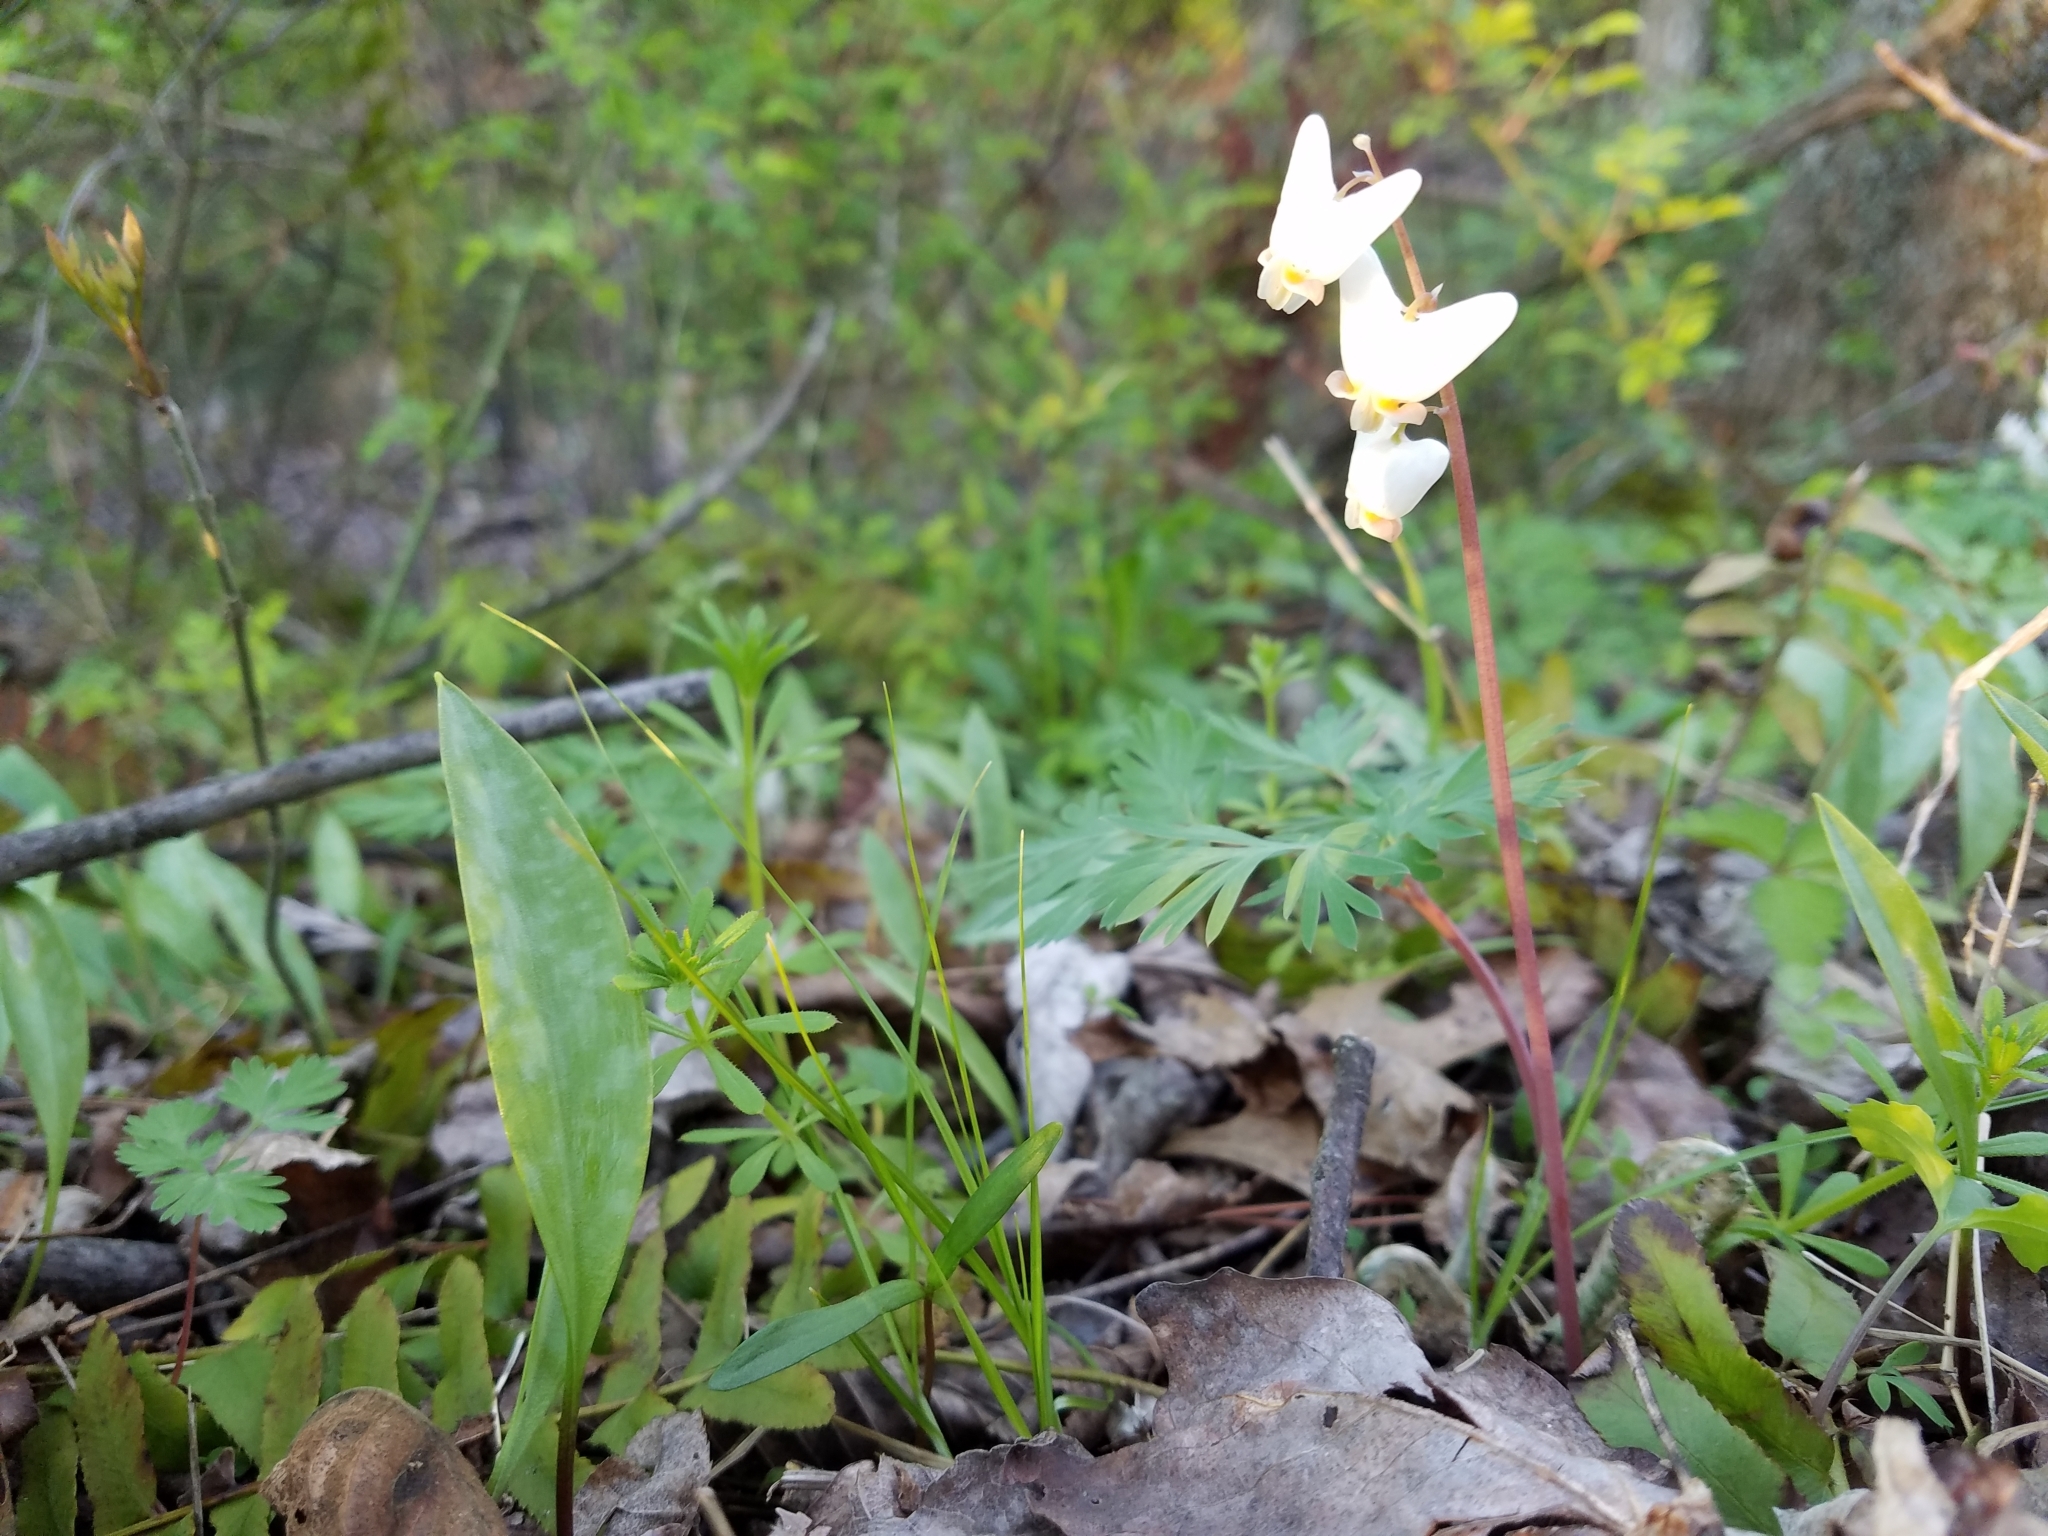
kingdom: Plantae
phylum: Tracheophyta
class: Magnoliopsida
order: Ranunculales
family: Papaveraceae
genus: Dicentra
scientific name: Dicentra cucullaria
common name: Dutchman's breeches
